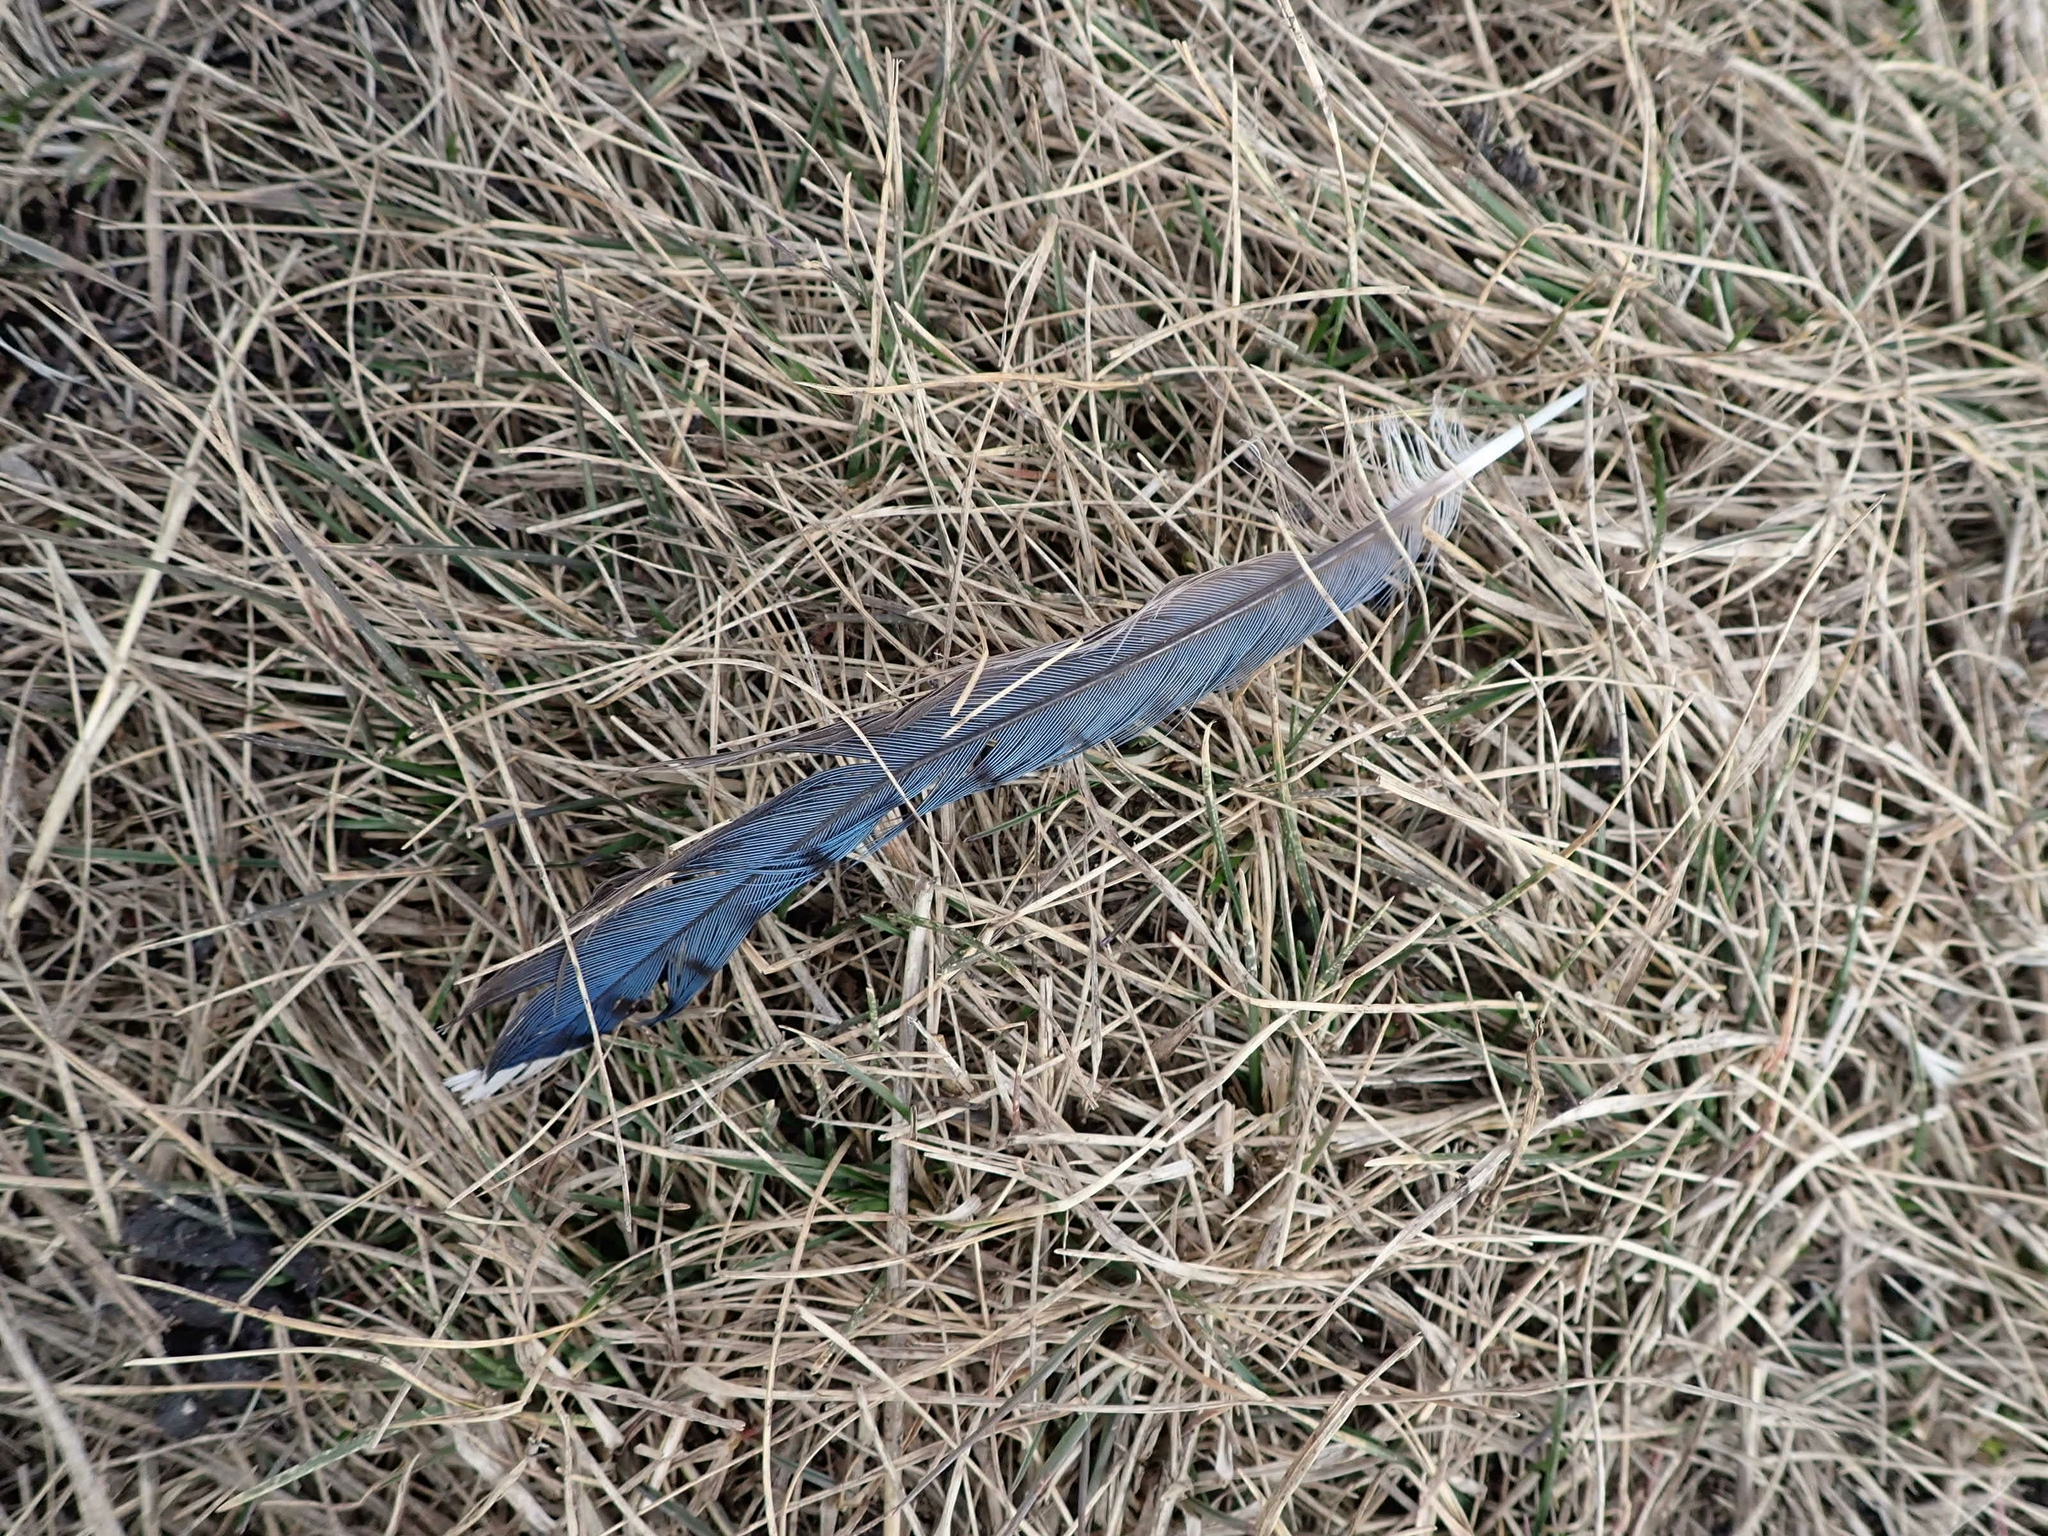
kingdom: Animalia
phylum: Chordata
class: Aves
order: Passeriformes
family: Corvidae
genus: Cyanocitta
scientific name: Cyanocitta cristata
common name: Blue jay
